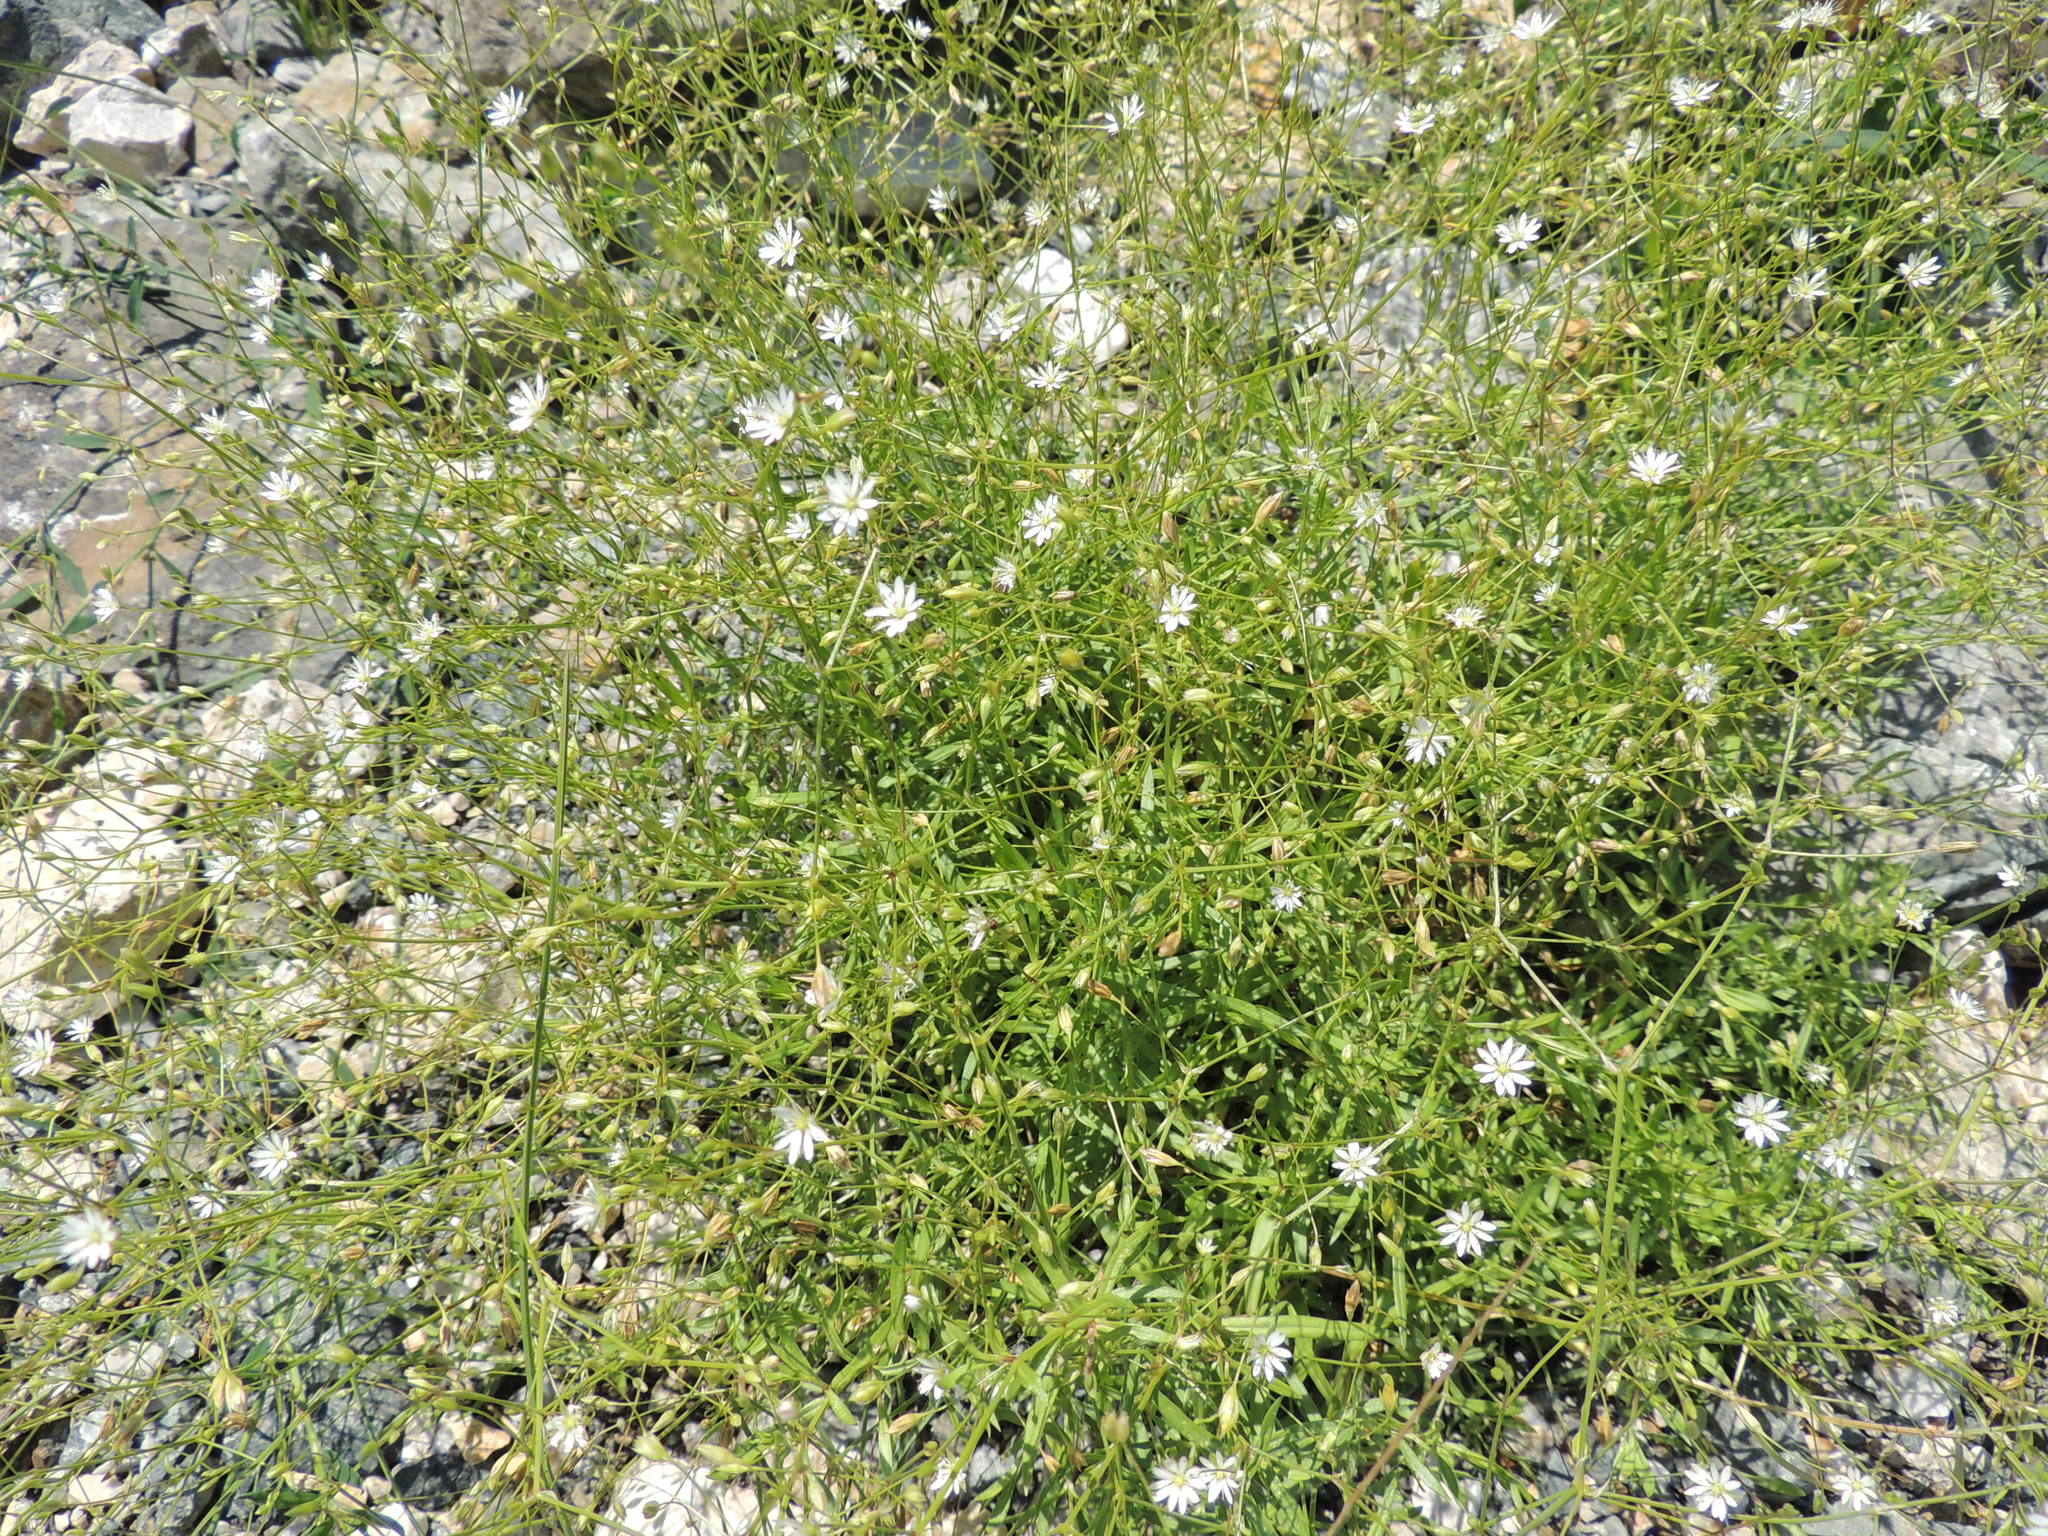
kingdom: Plantae
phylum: Tracheophyta
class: Magnoliopsida
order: Caryophyllales
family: Caryophyllaceae
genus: Stellaria
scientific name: Stellaria graminea
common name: Grass-like starwort
